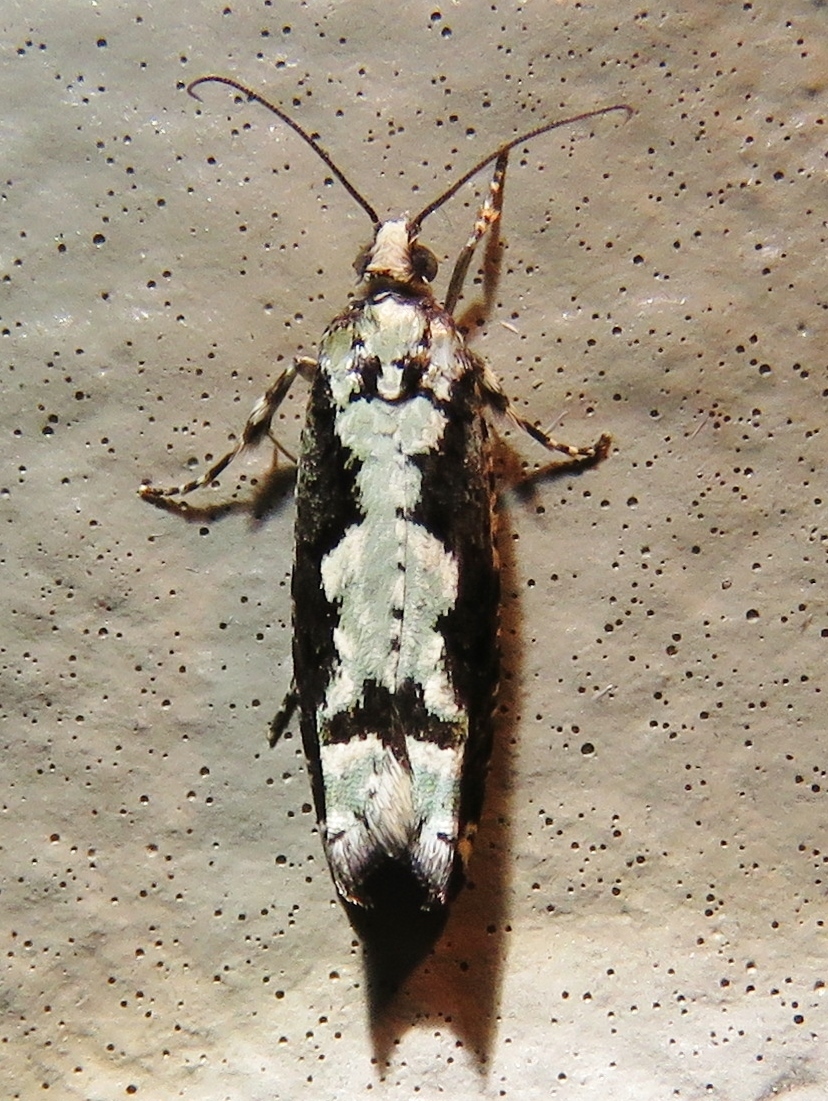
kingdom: Animalia
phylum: Arthropoda
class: Insecta
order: Lepidoptera
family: Tortricidae
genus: Chimoptesis
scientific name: Chimoptesis pennsylvaniana
